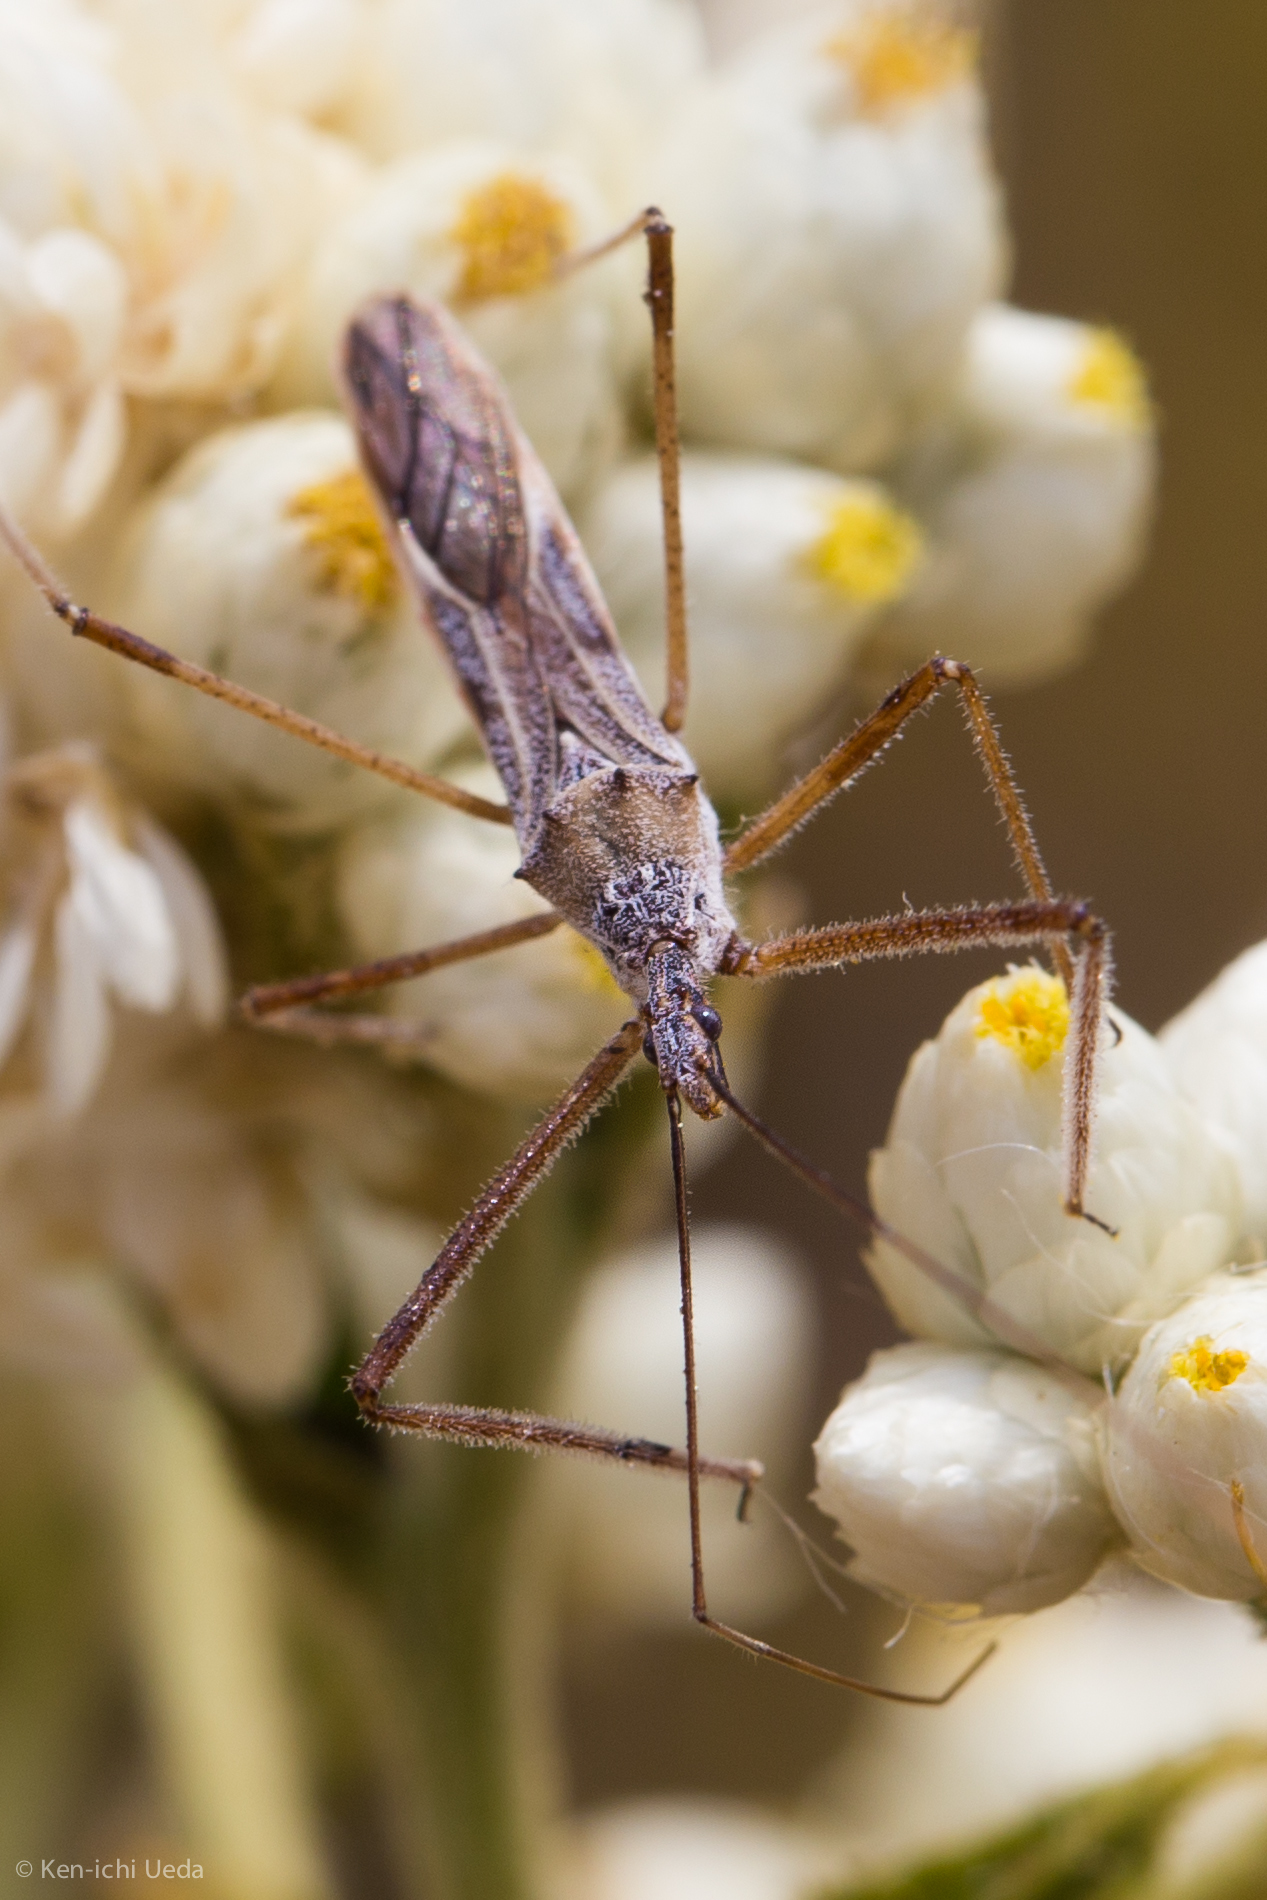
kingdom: Animalia
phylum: Arthropoda
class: Insecta
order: Hemiptera
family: Reduviidae
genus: Zelus
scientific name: Zelus tetracanthus
